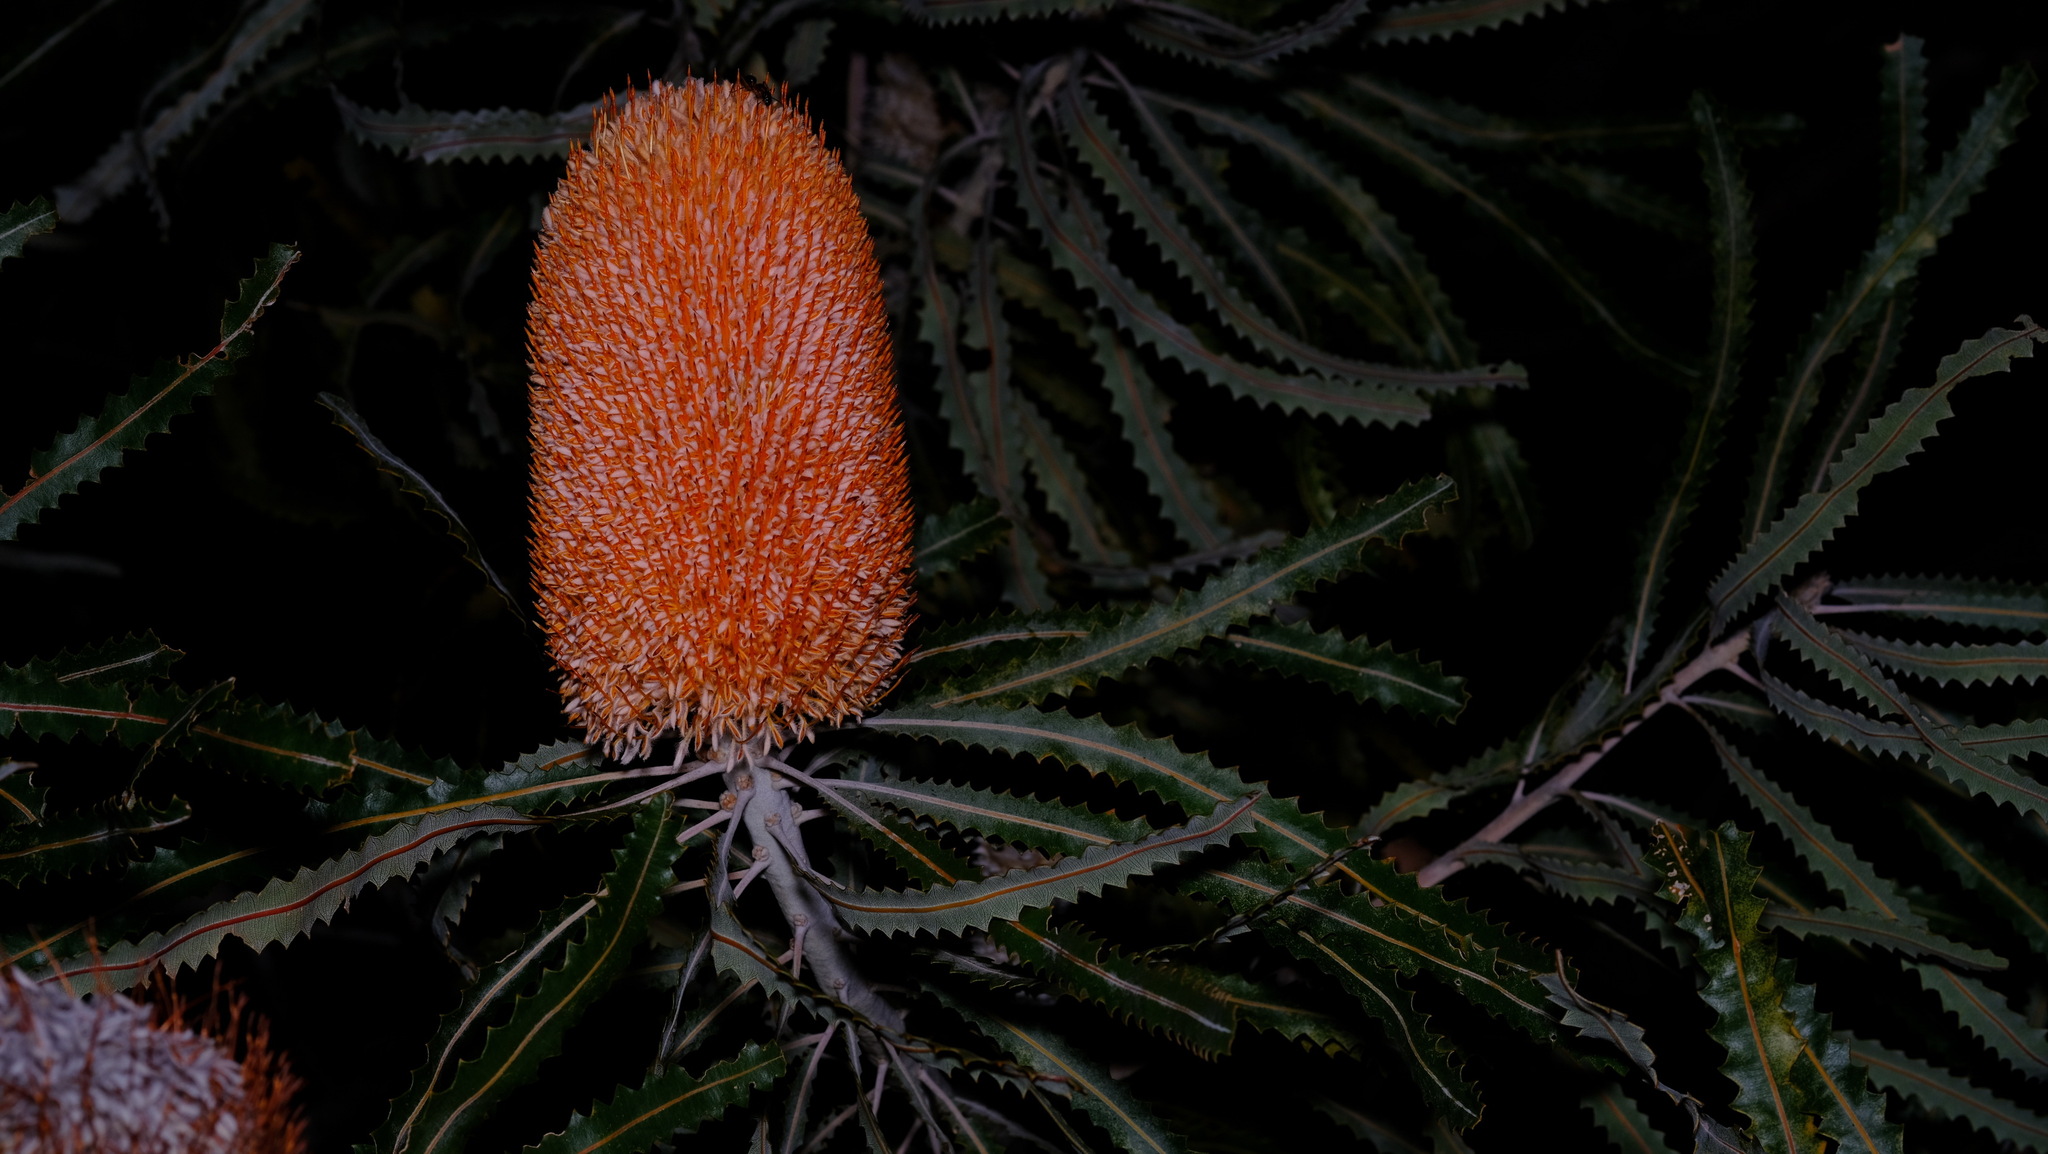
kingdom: Plantae
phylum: Tracheophyta
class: Magnoliopsida
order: Proteales
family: Proteaceae
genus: Banksia
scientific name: Banksia prionotes
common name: Acorn banksia
